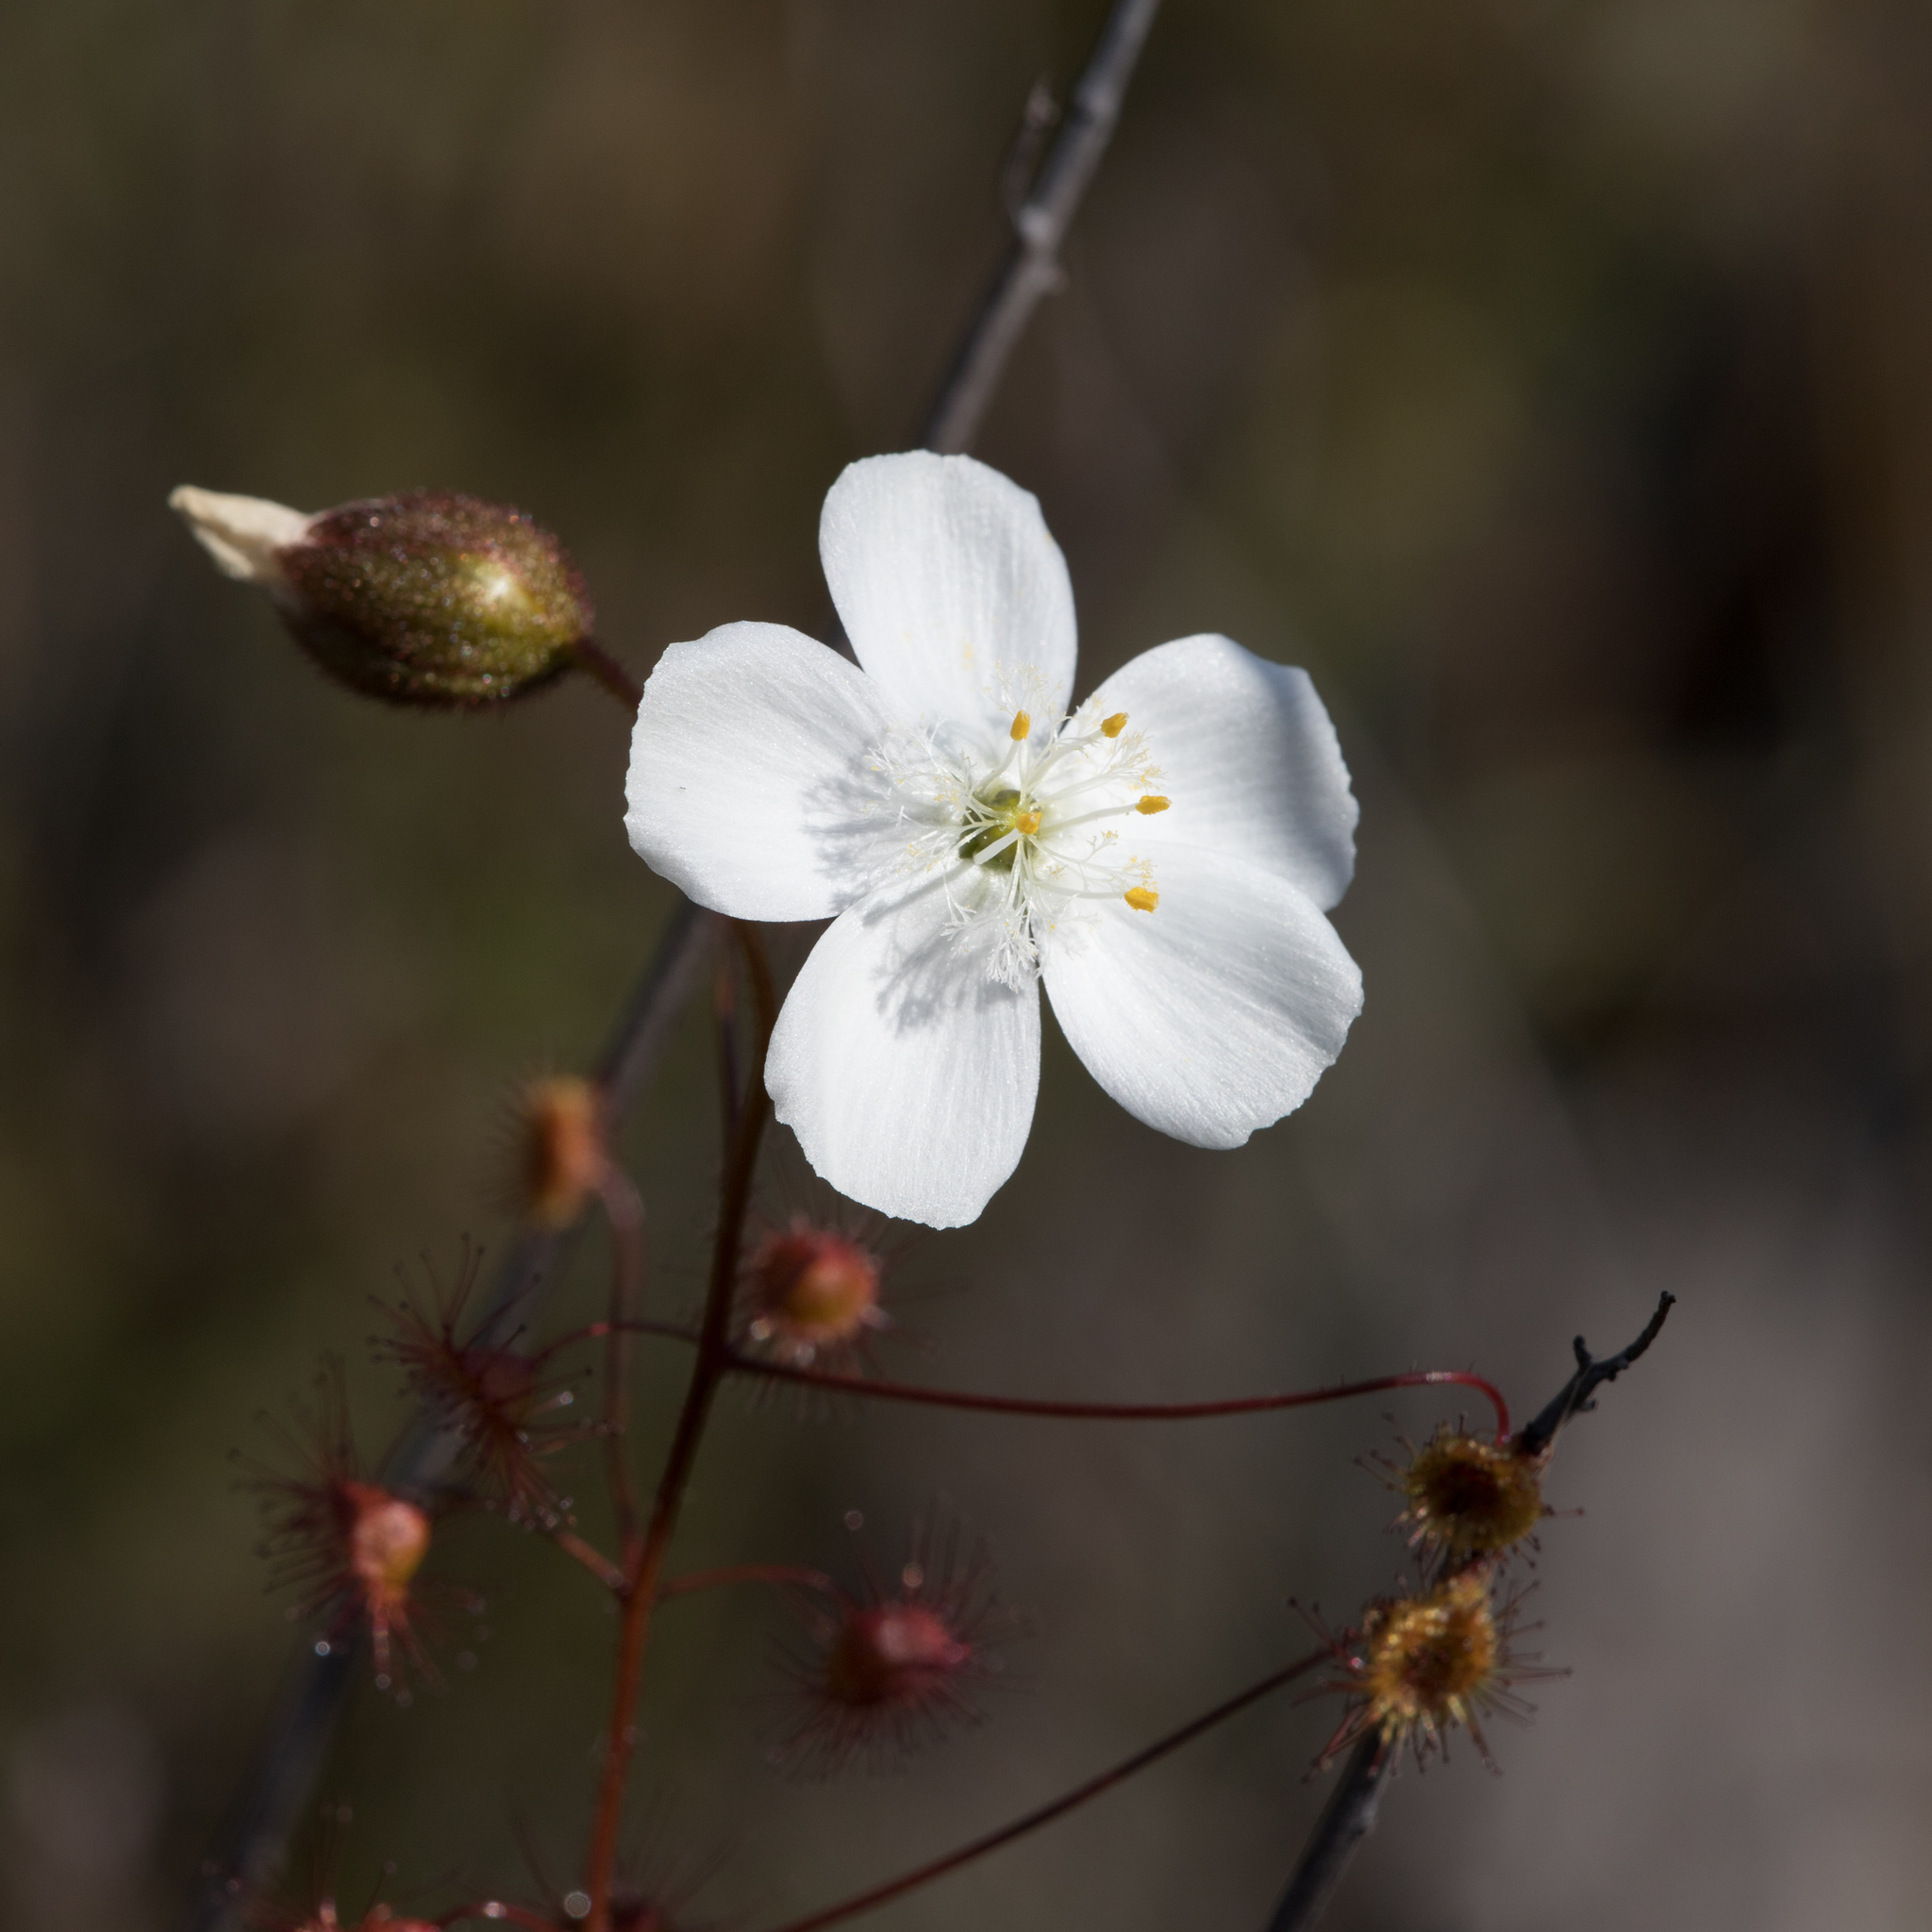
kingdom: Plantae
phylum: Tracheophyta
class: Magnoliopsida
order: Caryophyllales
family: Droseraceae
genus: Drosera
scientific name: Drosera planchonii
